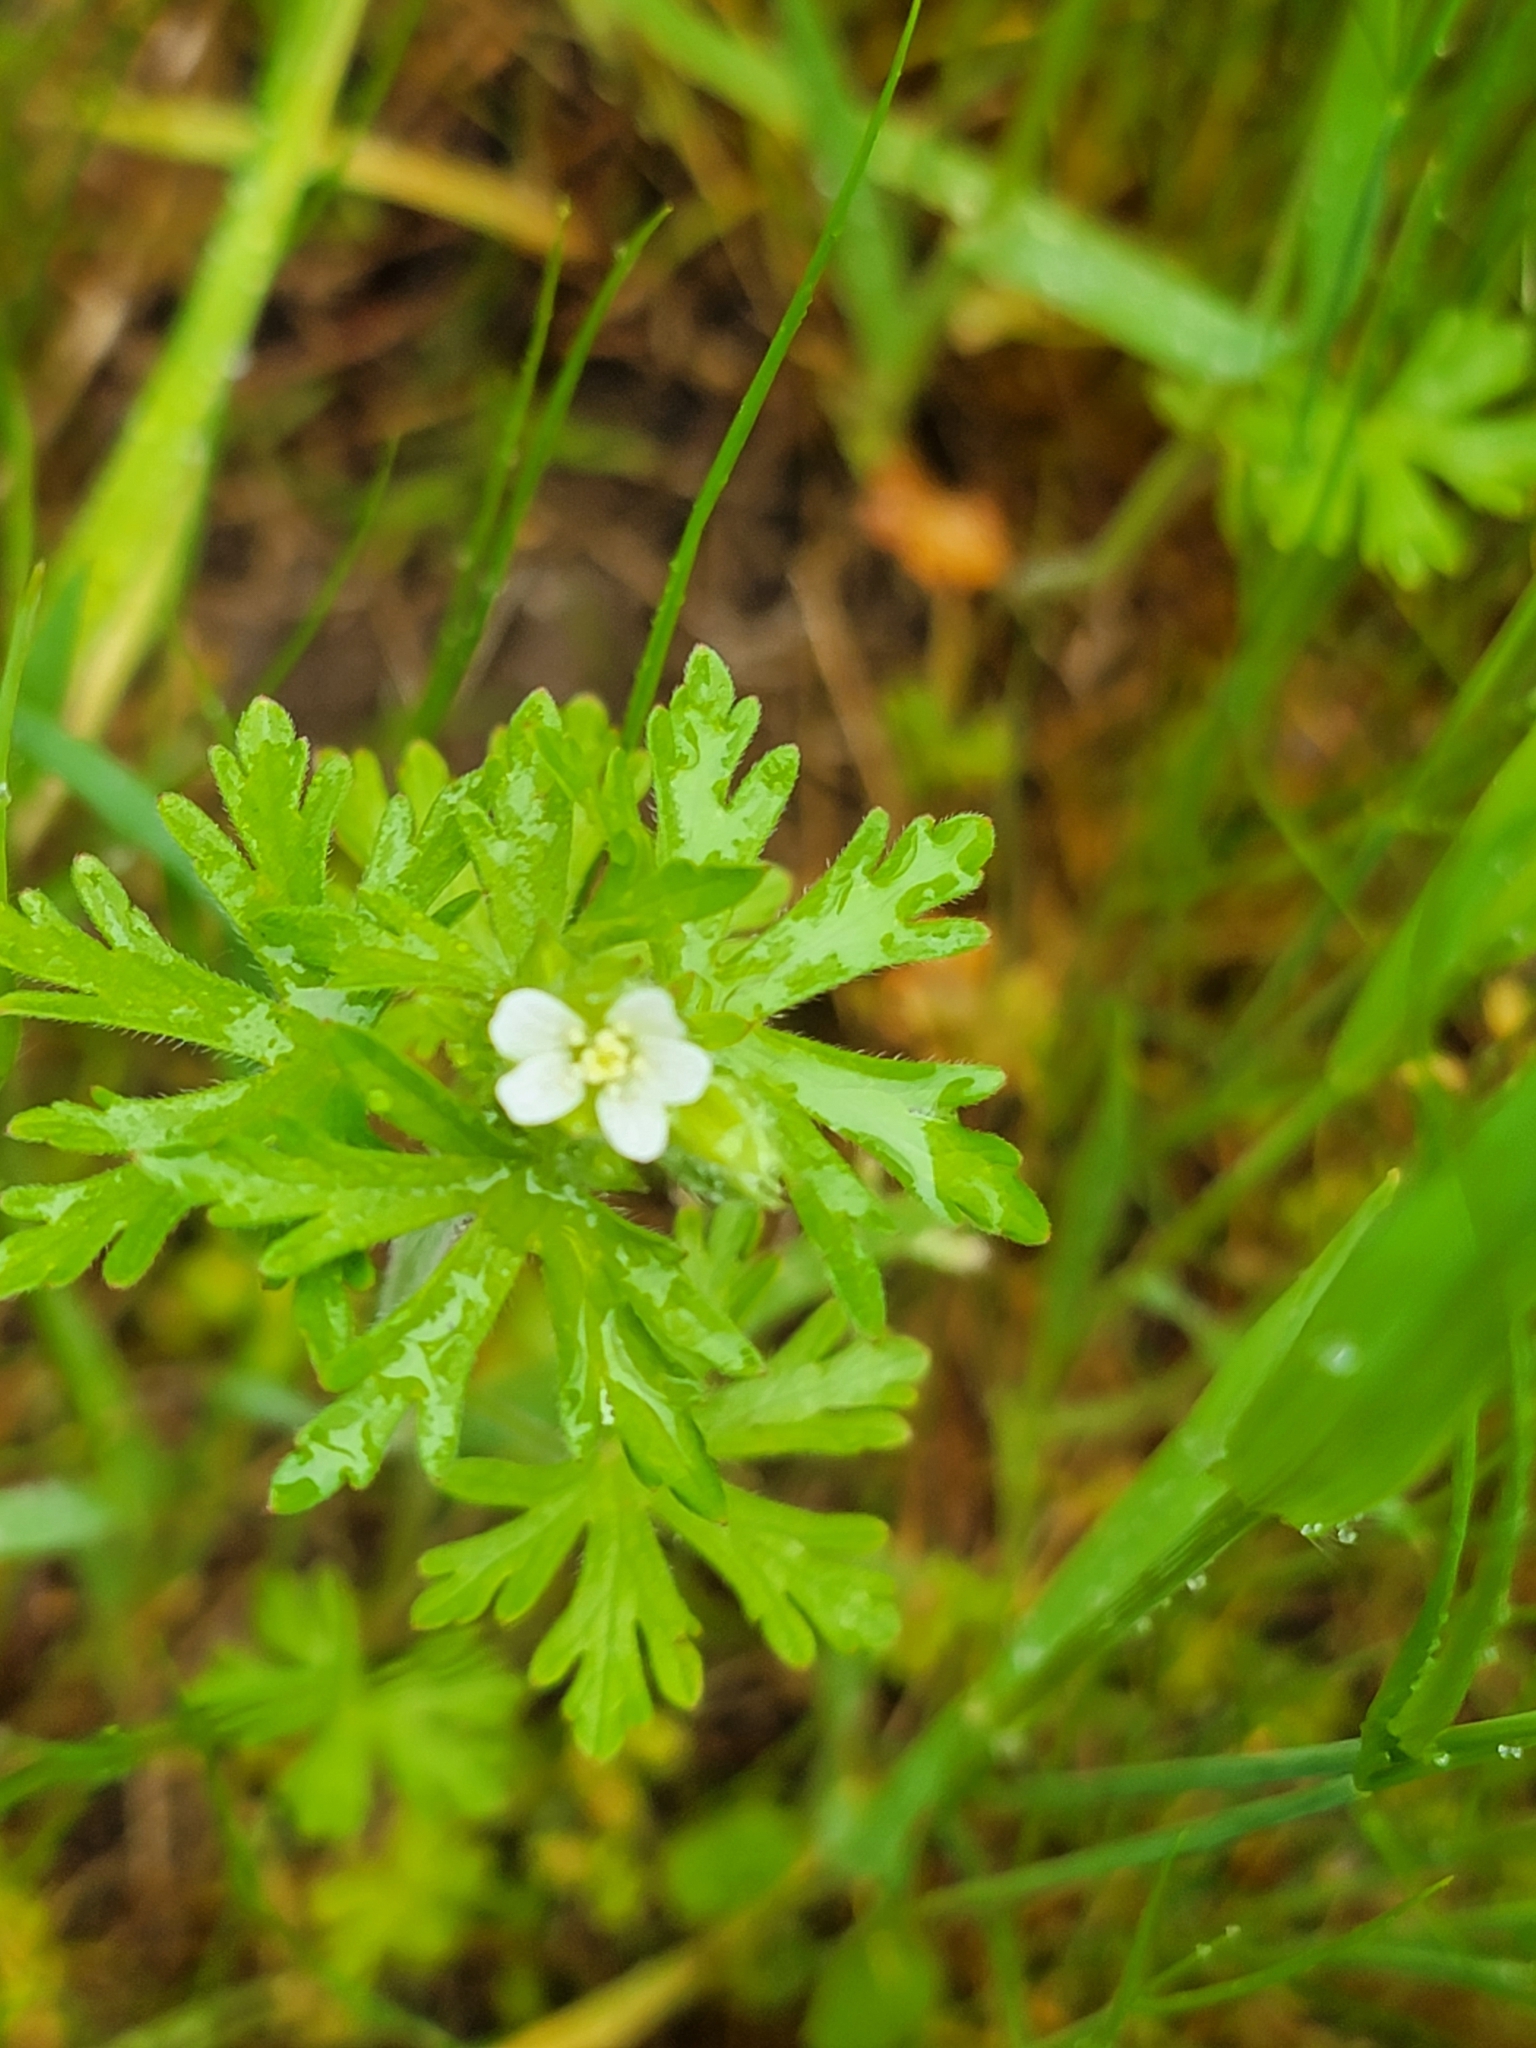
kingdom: Plantae
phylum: Tracheophyta
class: Magnoliopsida
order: Geraniales
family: Geraniaceae
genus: Geranium
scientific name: Geranium carolinianum
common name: Carolina crane's-bill
